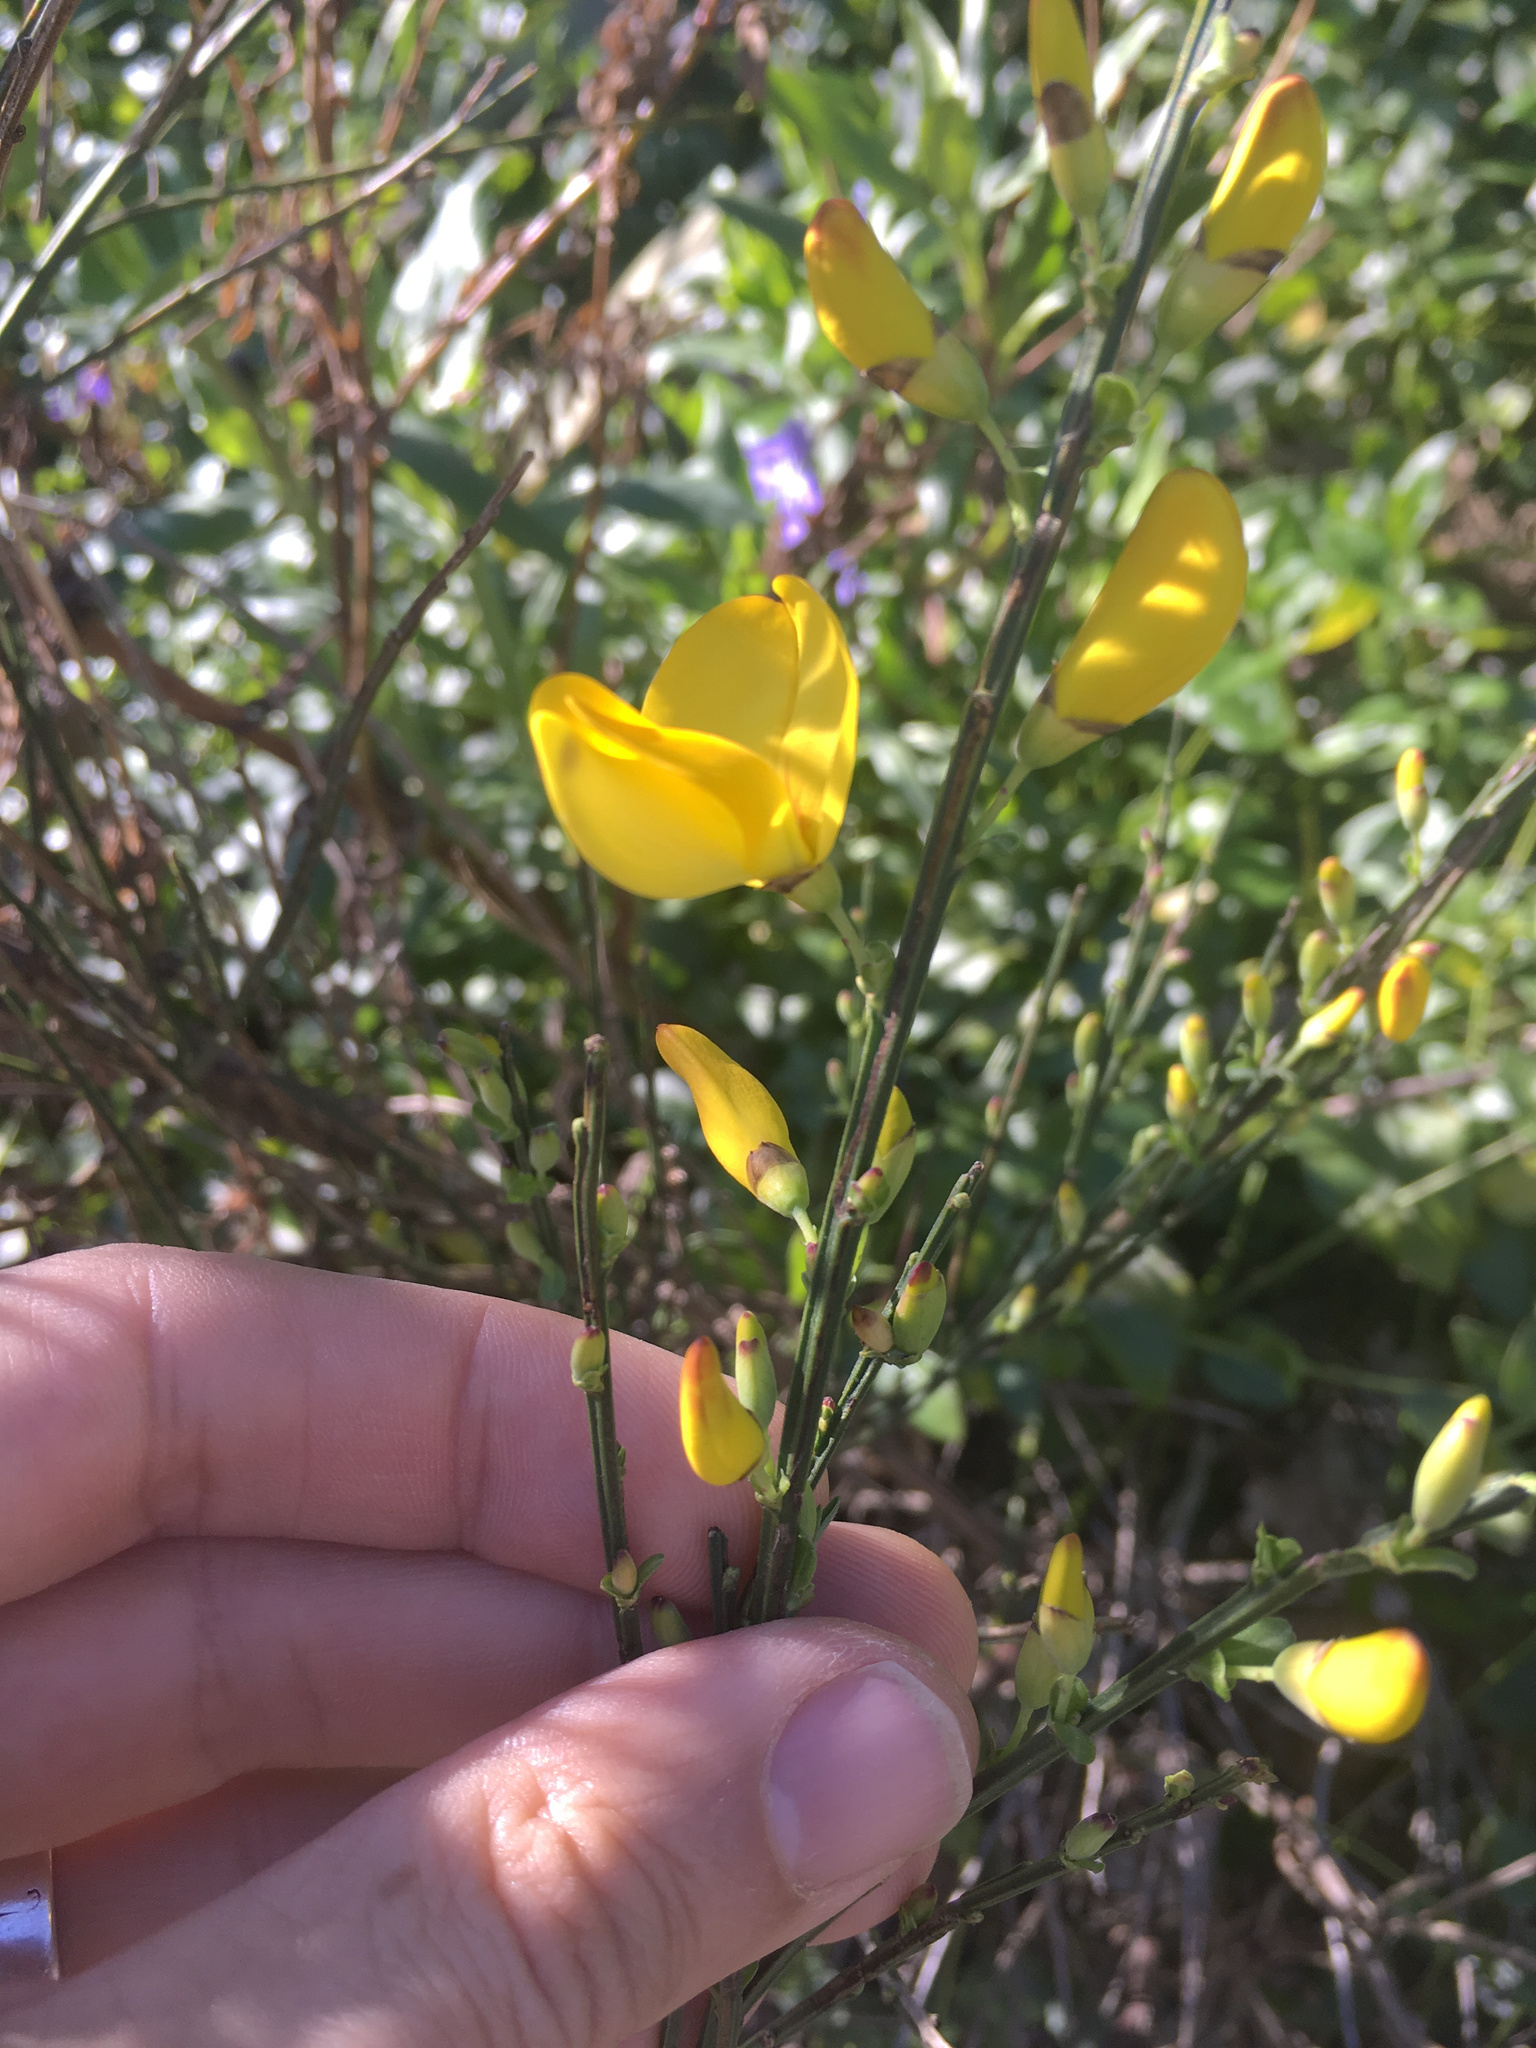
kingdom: Plantae
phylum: Tracheophyta
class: Magnoliopsida
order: Fabales
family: Fabaceae
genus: Cytisus
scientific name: Cytisus scoparius
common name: Scotch broom
